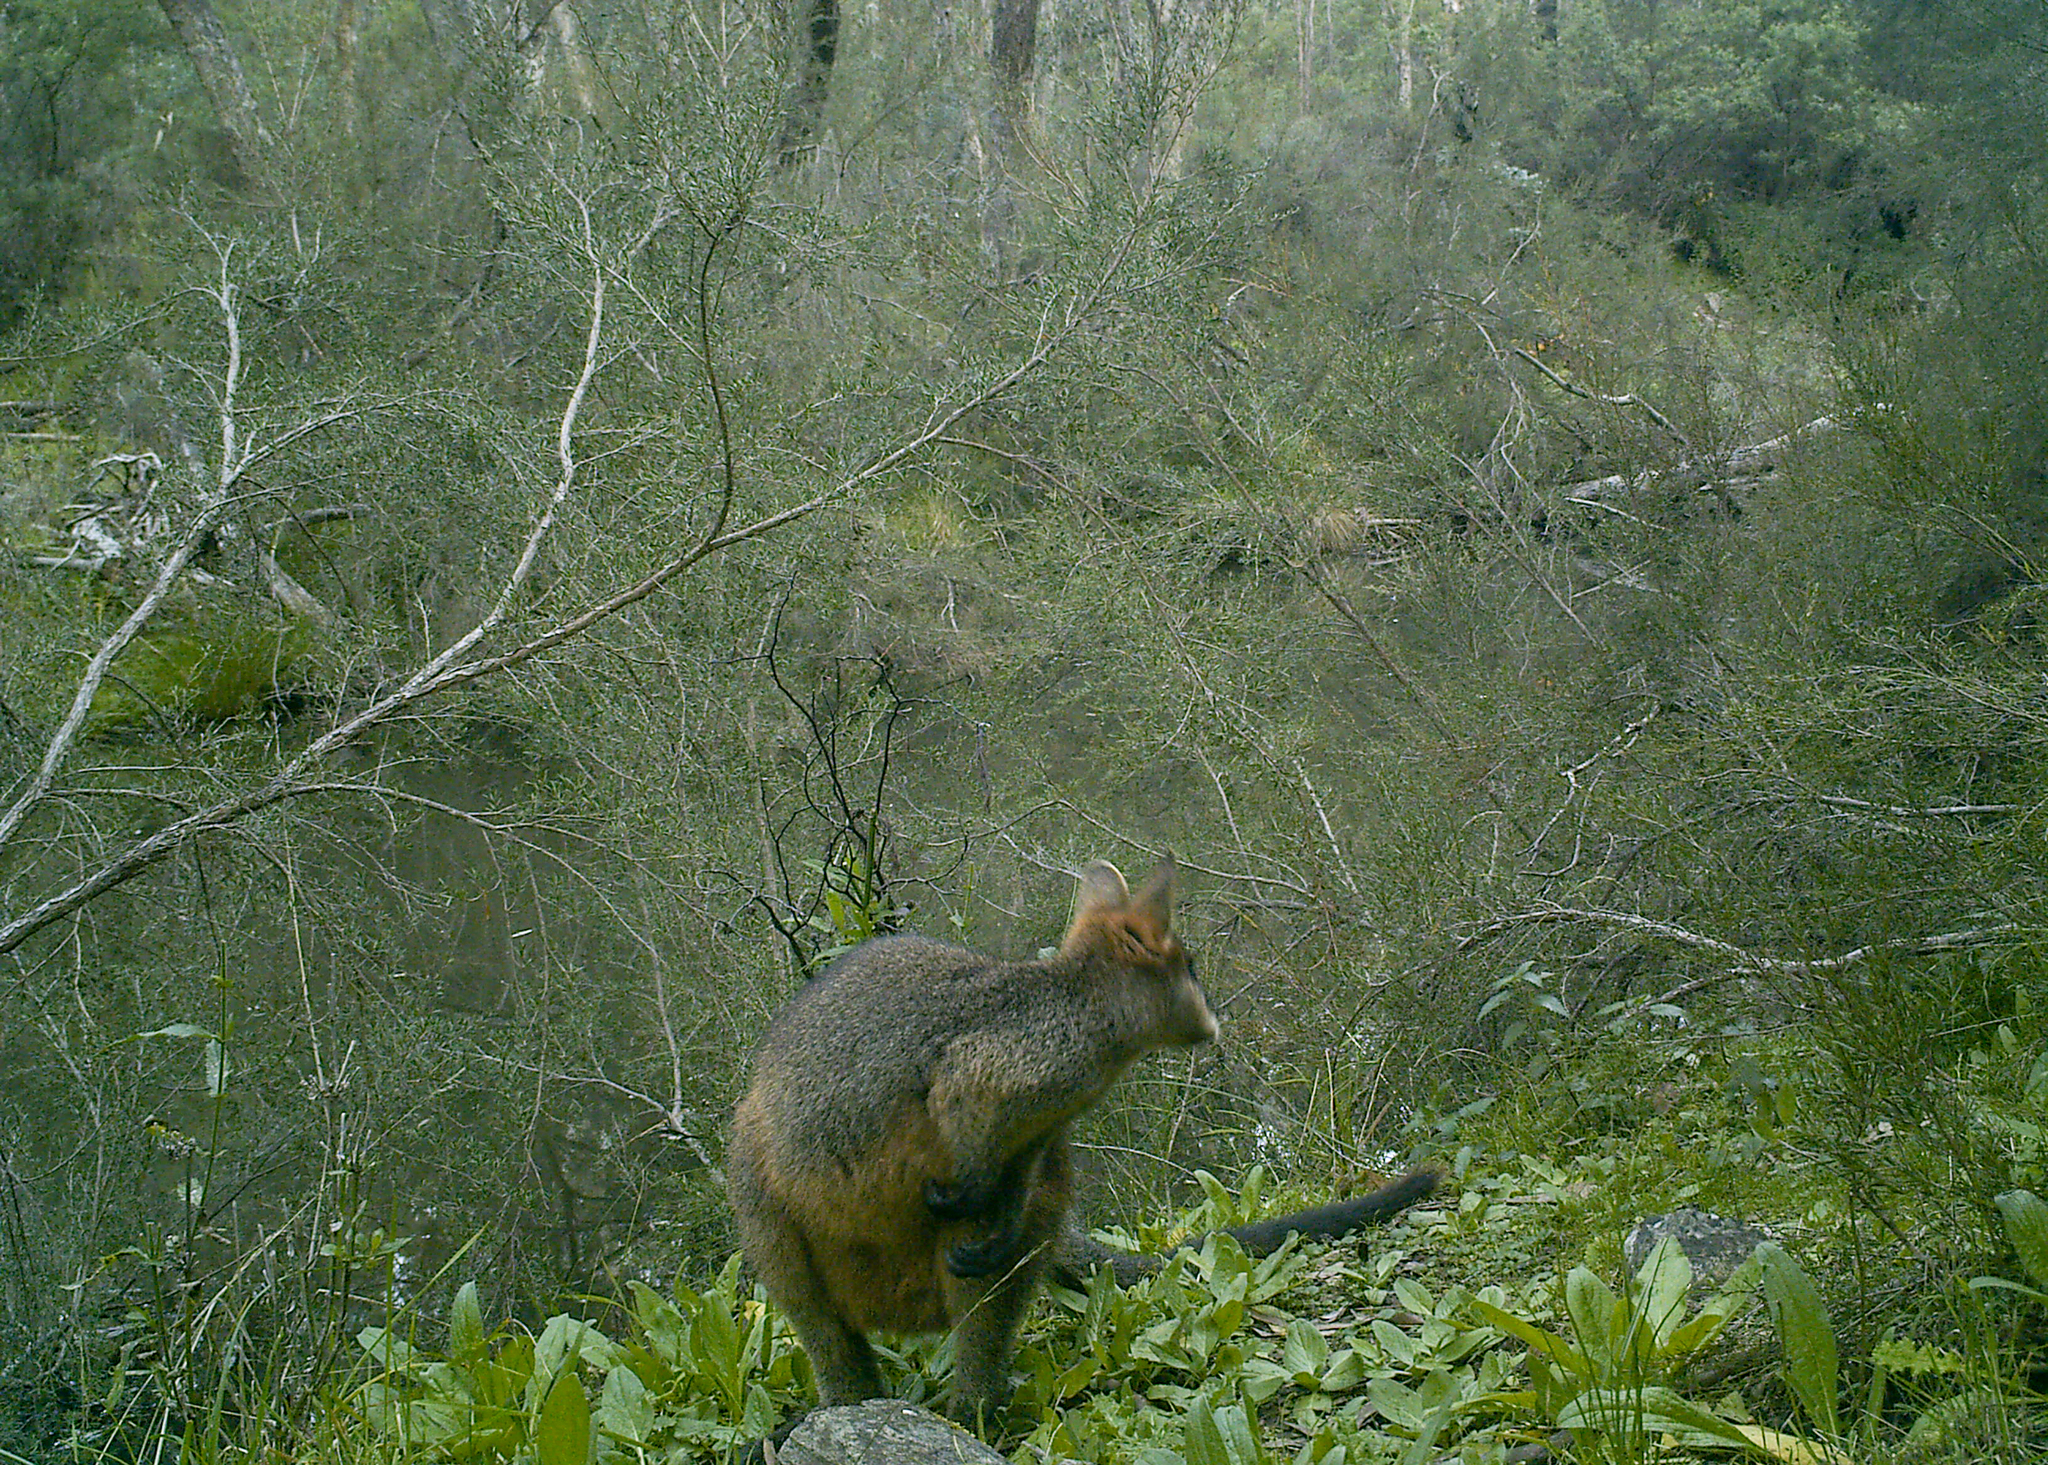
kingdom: Animalia
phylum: Chordata
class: Mammalia
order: Diprotodontia
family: Macropodidae
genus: Wallabia
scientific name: Wallabia bicolor
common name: Swamp wallaby
